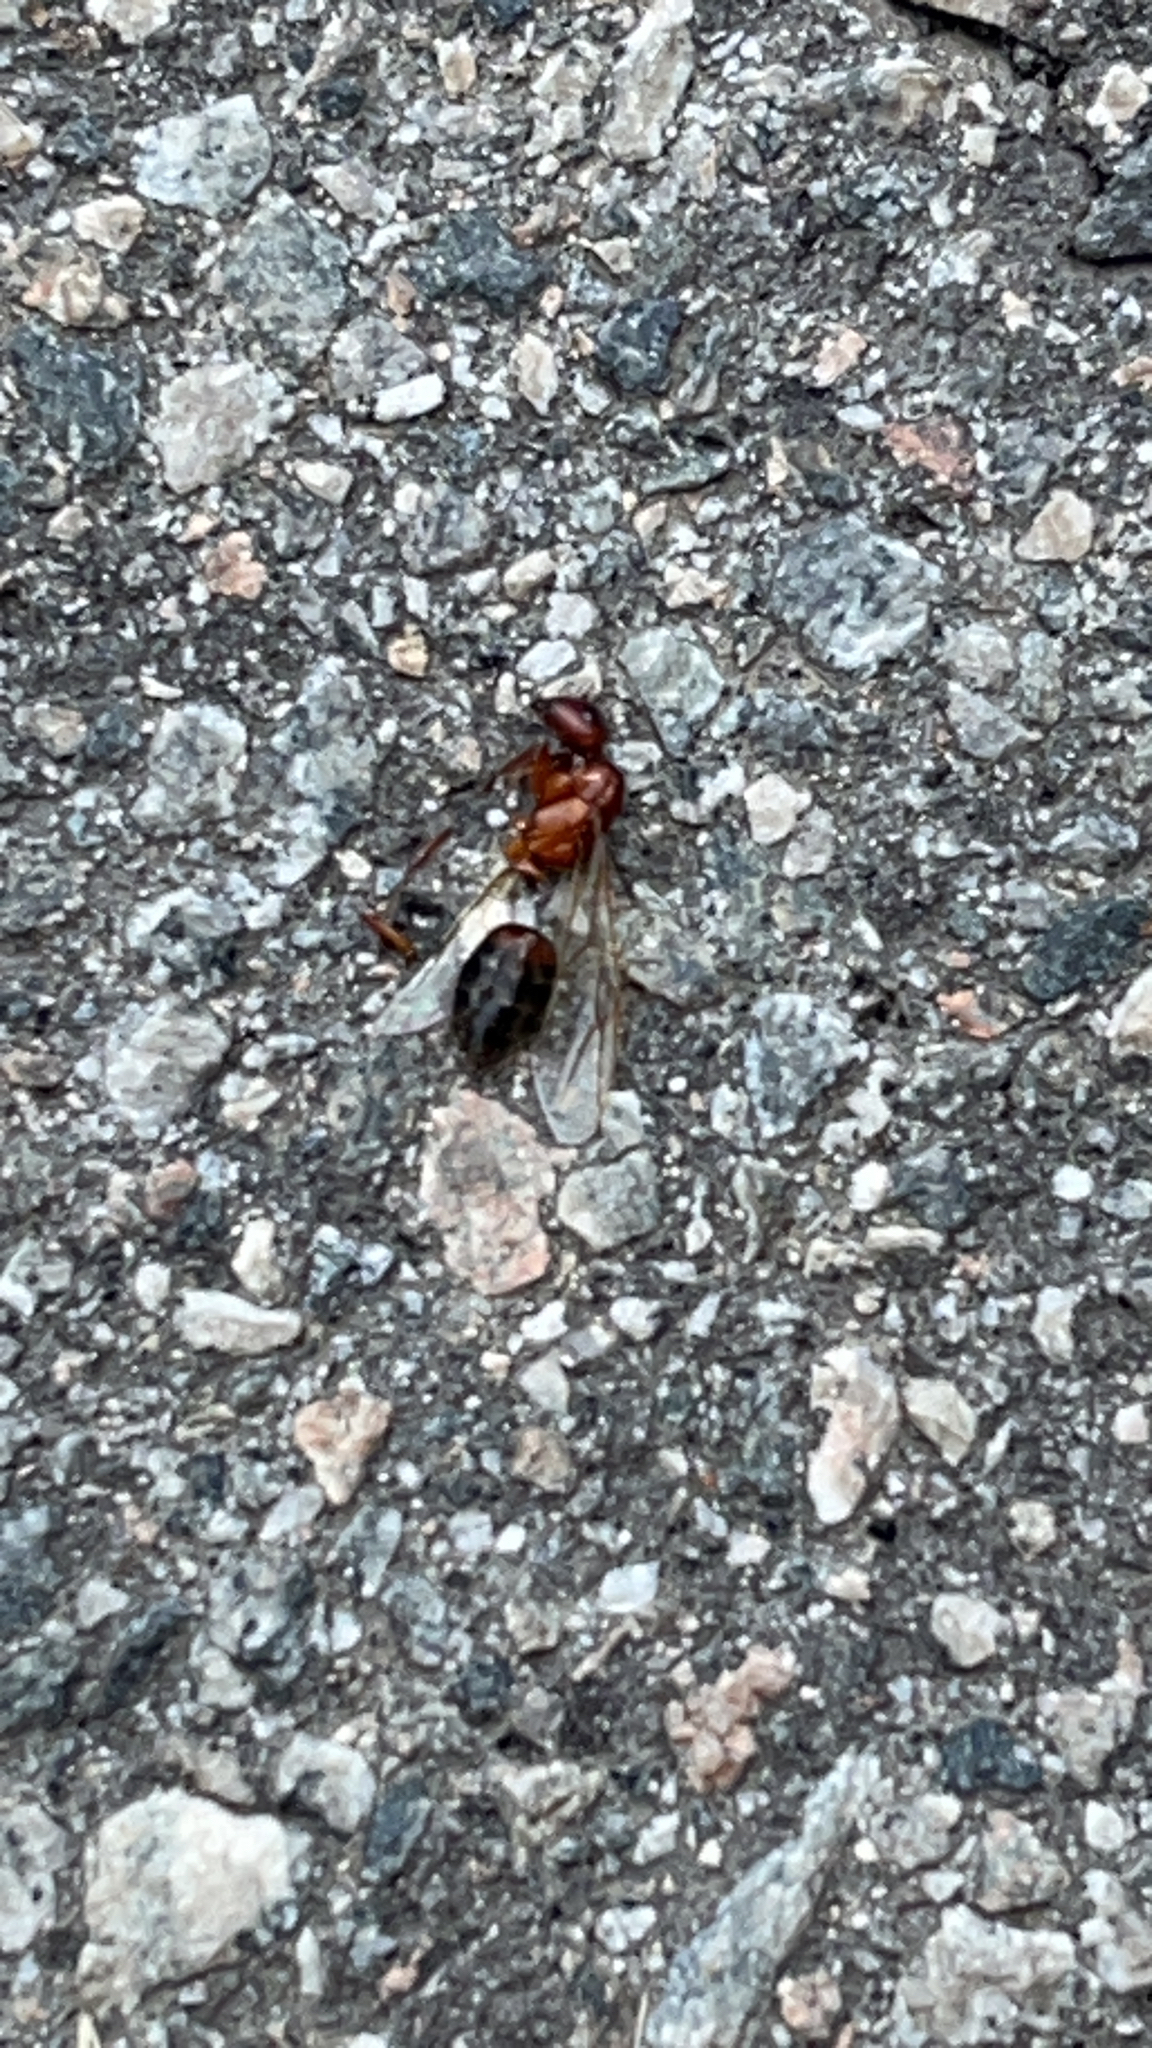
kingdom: Animalia
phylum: Arthropoda
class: Insecta
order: Hymenoptera
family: Formicidae
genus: Camponotus
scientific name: Camponotus floridanus
